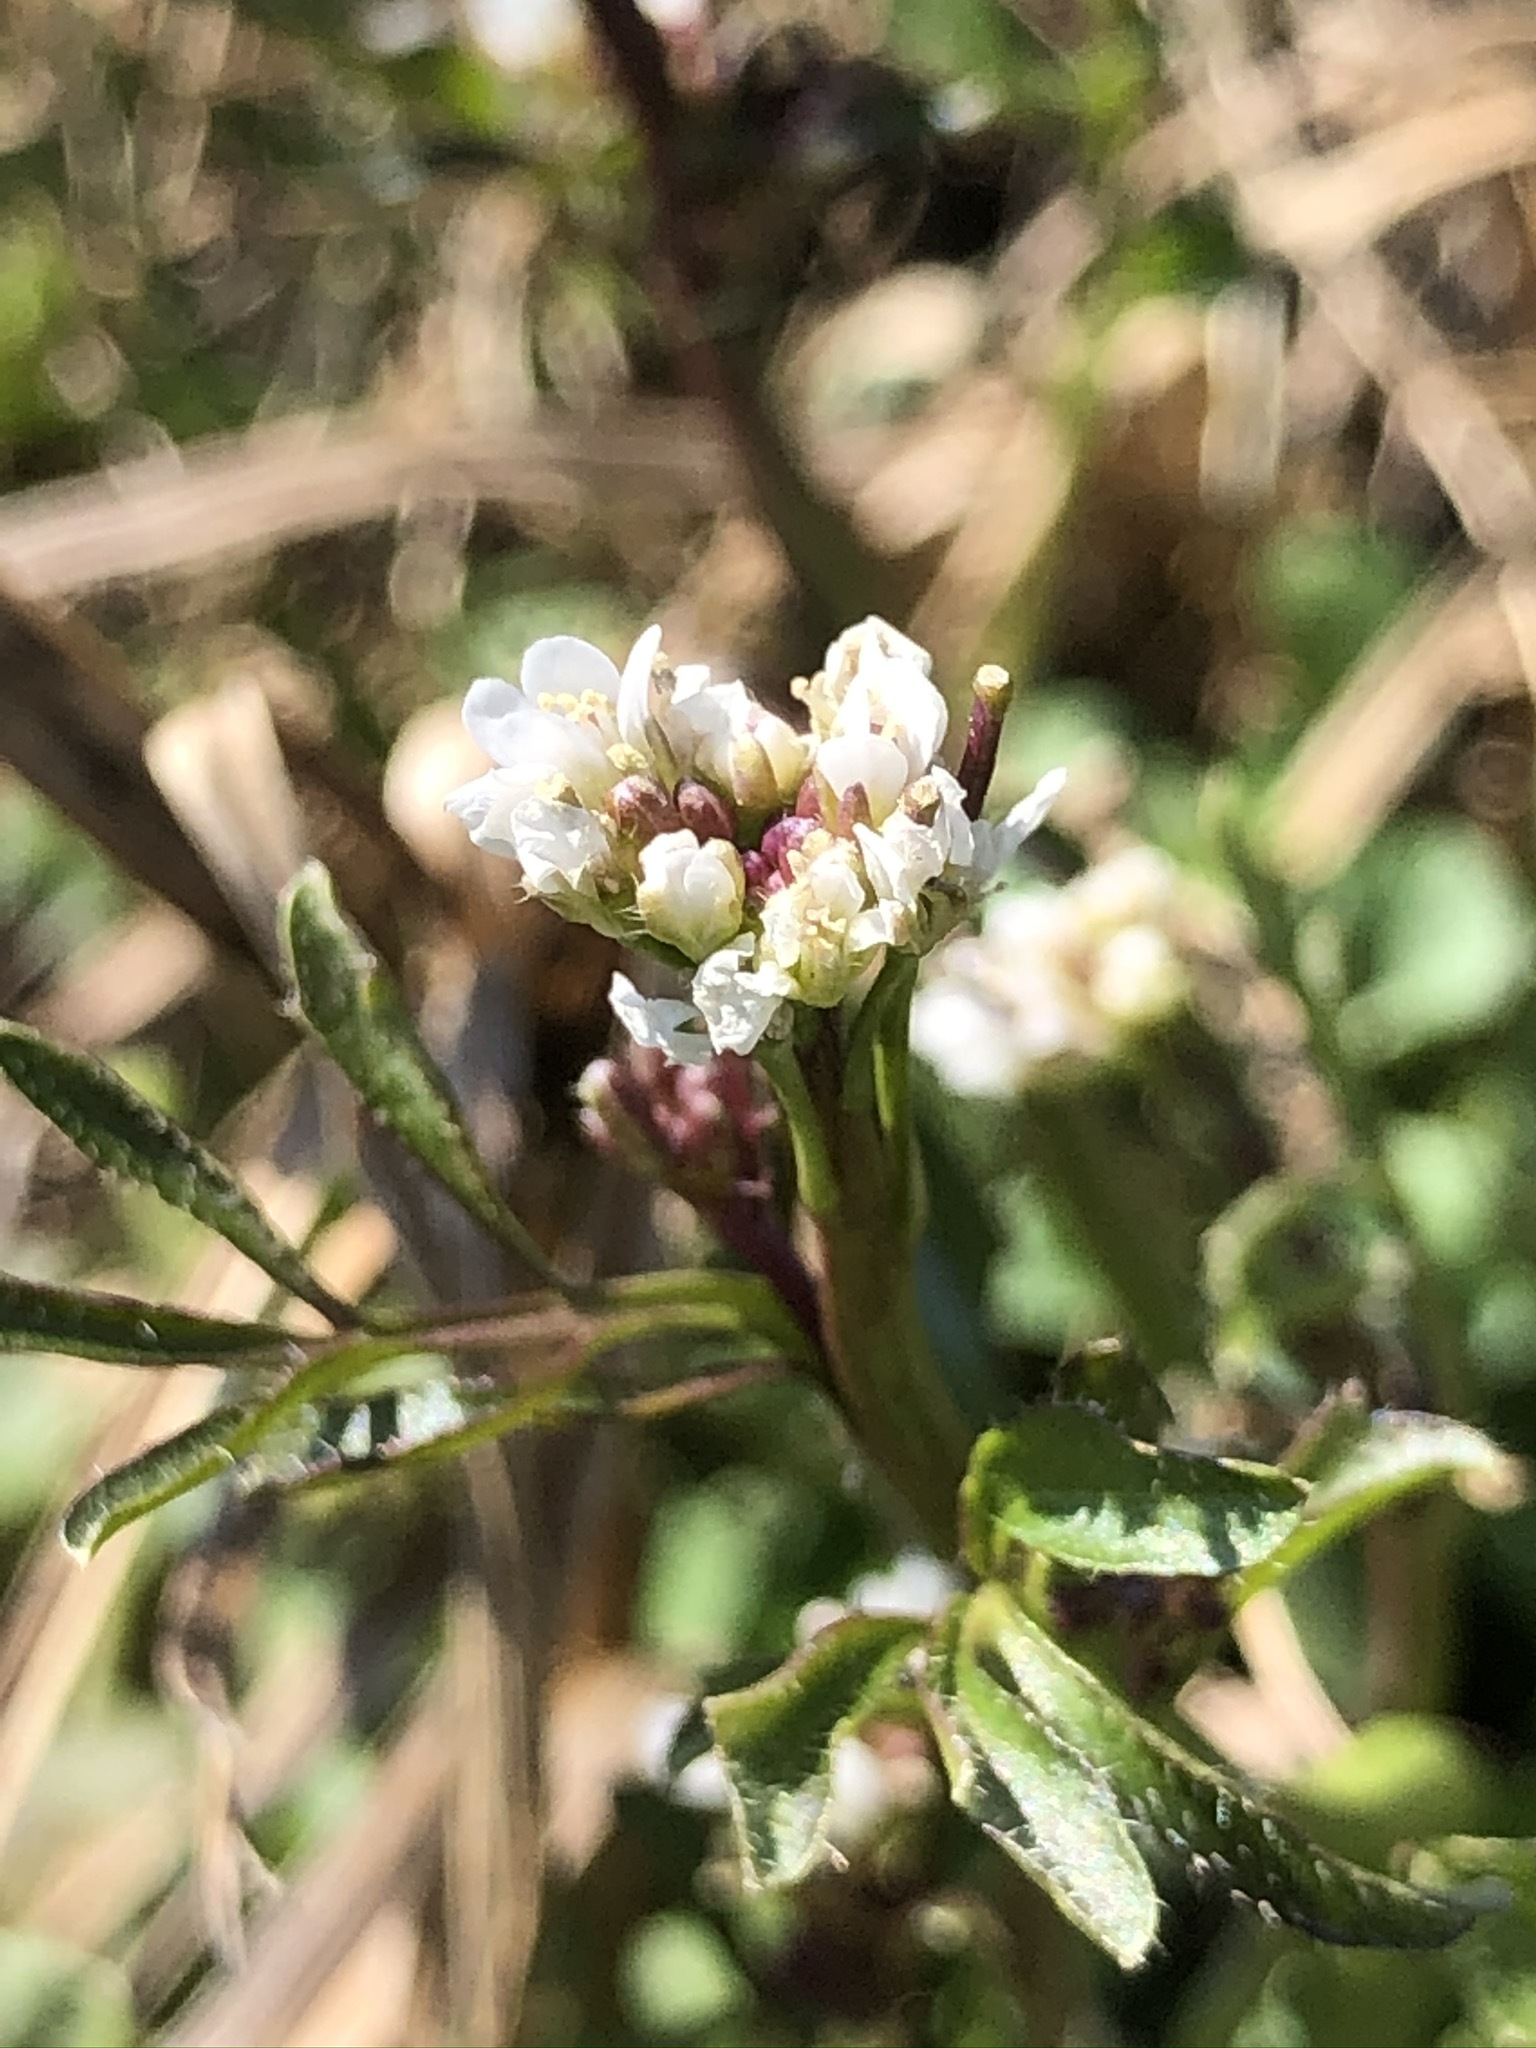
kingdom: Plantae
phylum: Tracheophyta
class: Magnoliopsida
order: Brassicales
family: Brassicaceae
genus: Cardamine
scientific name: Cardamine hirsuta
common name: Hairy bittercress
